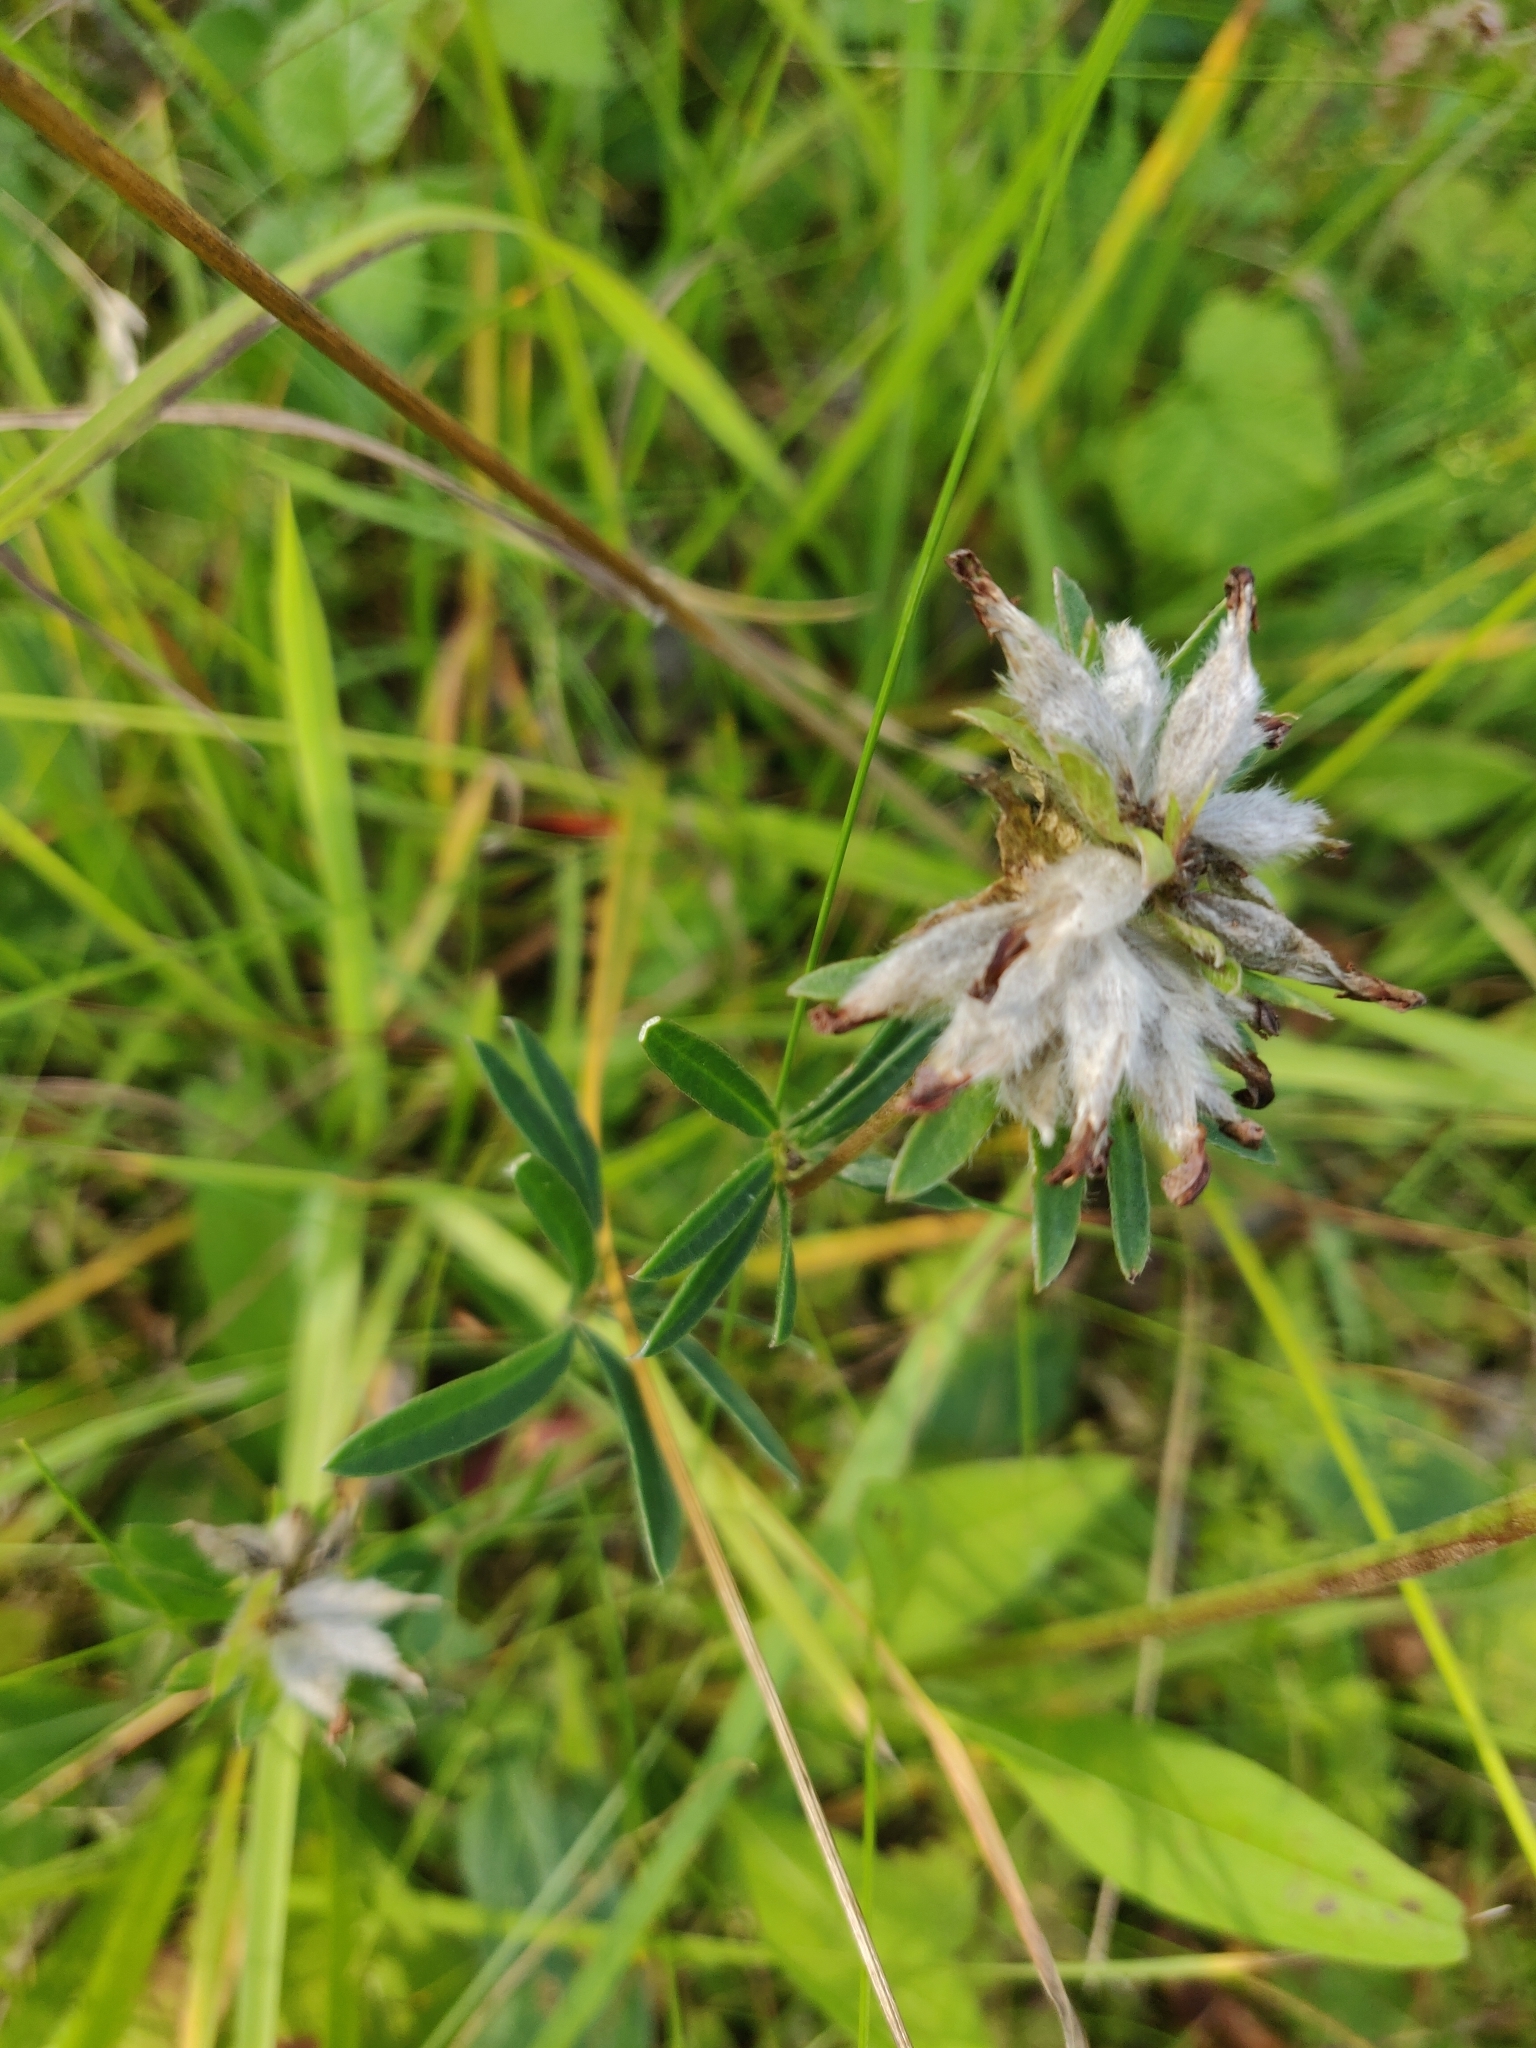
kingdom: Plantae
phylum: Tracheophyta
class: Magnoliopsida
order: Fabales
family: Fabaceae
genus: Anthyllis
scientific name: Anthyllis vulneraria
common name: Kidney vetch
